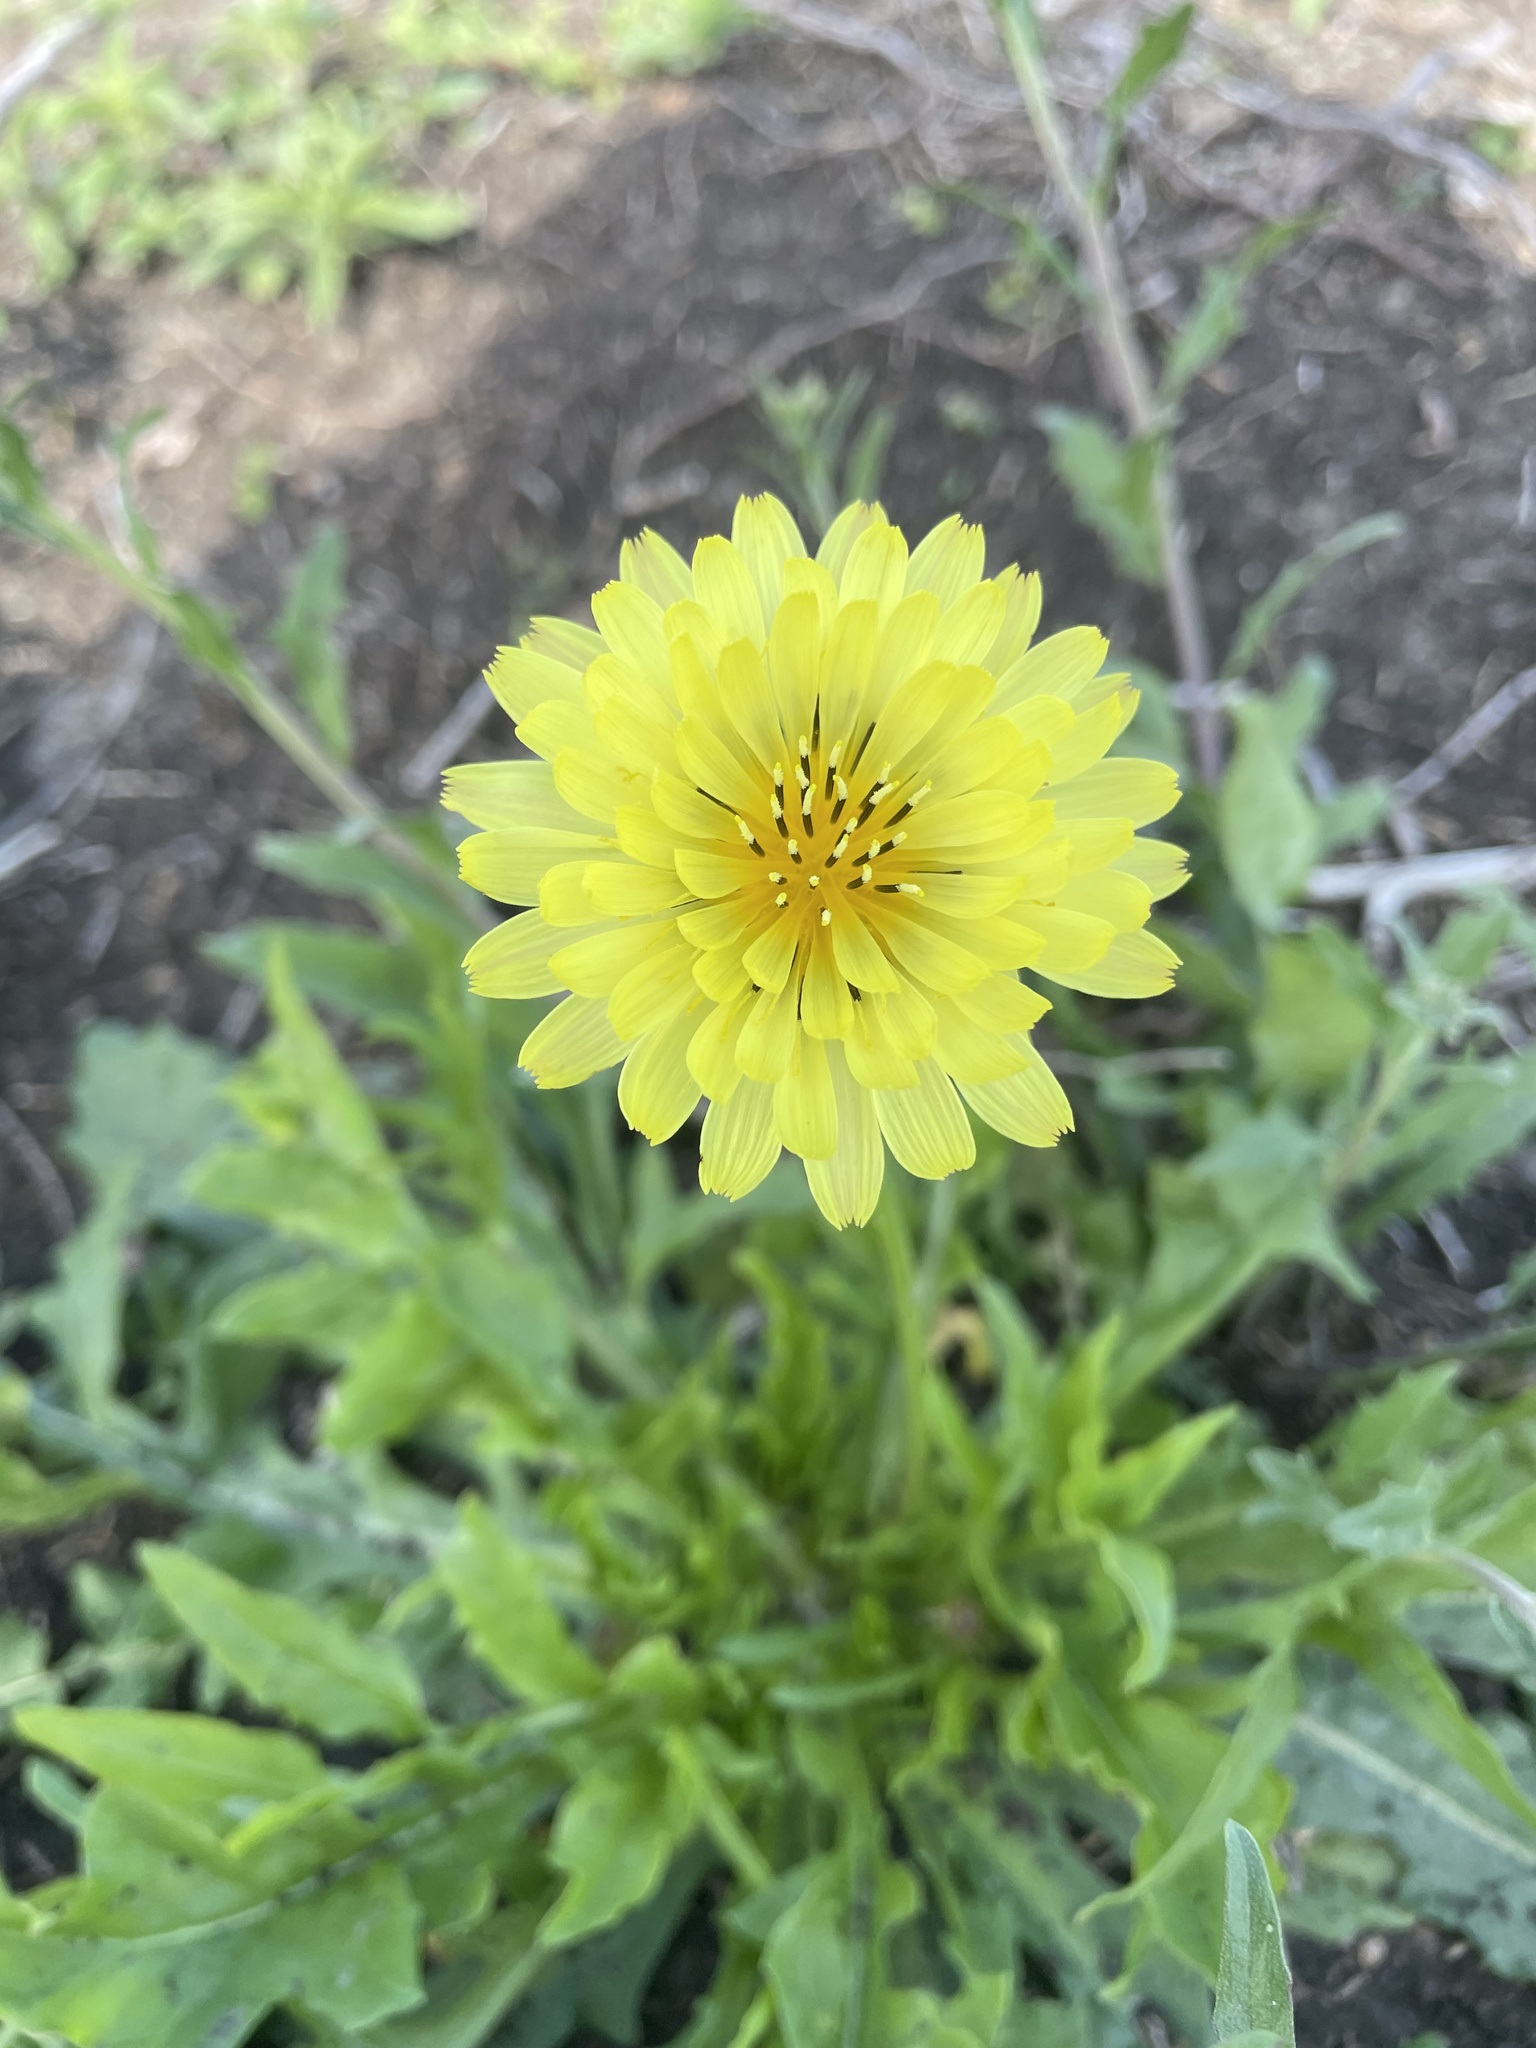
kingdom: Plantae
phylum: Tracheophyta
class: Magnoliopsida
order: Asterales
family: Asteraceae
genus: Pyrrhopappus
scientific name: Pyrrhopappus pauciflorus
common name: Texas false dandelion
